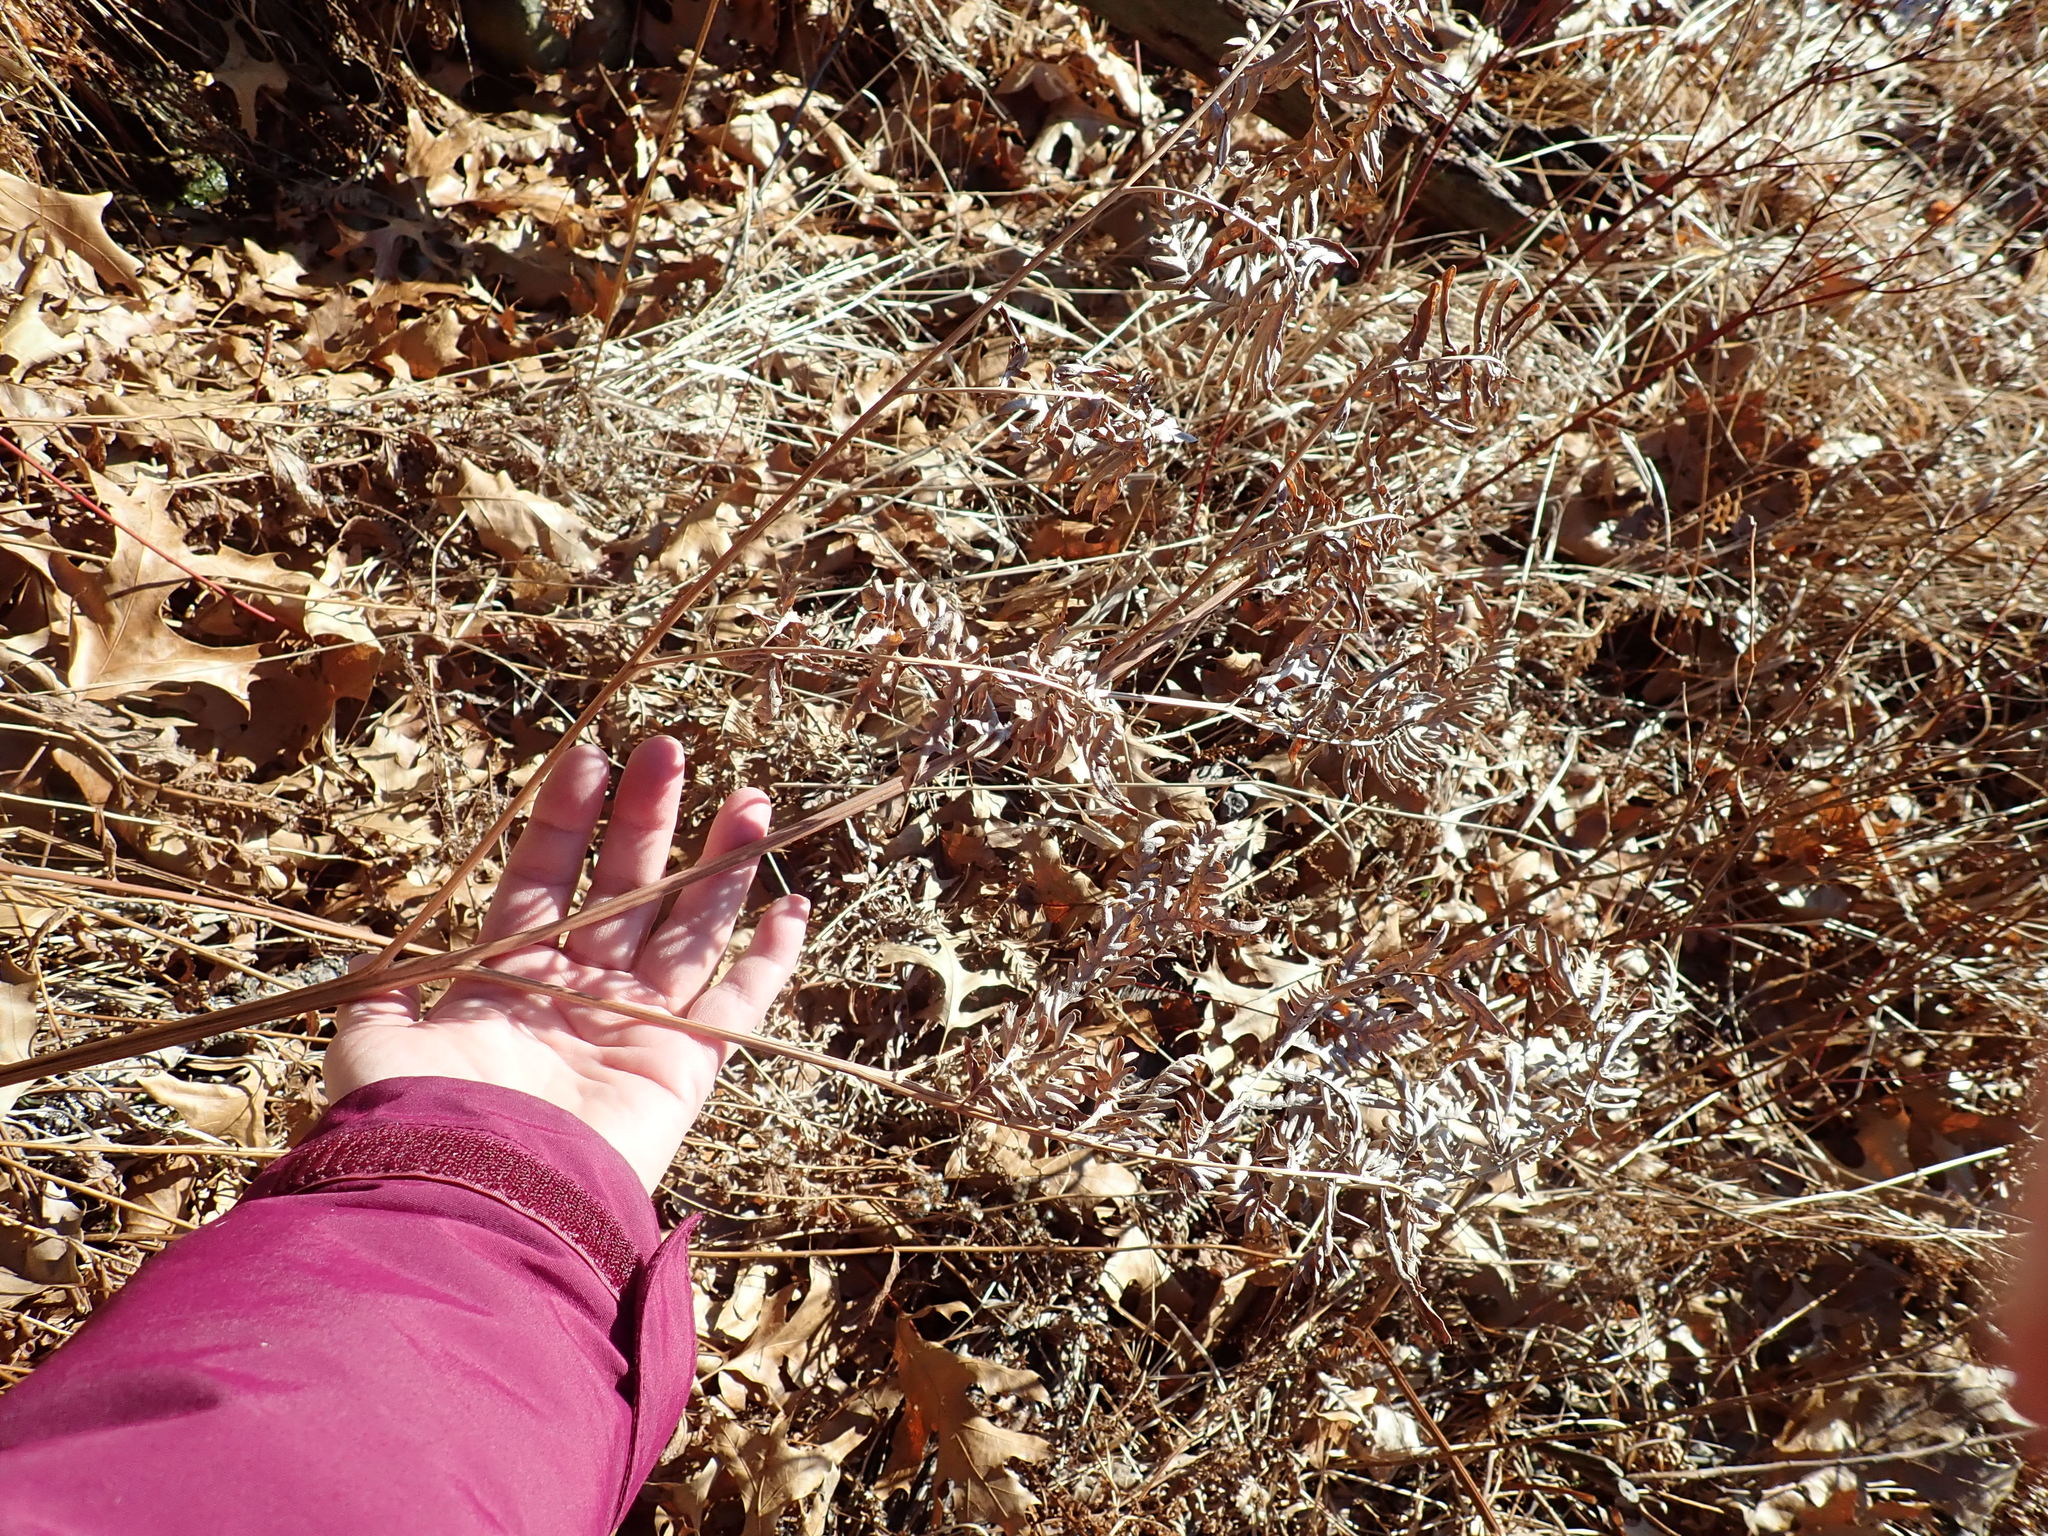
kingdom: Plantae
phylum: Tracheophyta
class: Polypodiopsida
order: Polypodiales
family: Dennstaedtiaceae
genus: Pteridium
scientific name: Pteridium aquilinum
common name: Bracken
